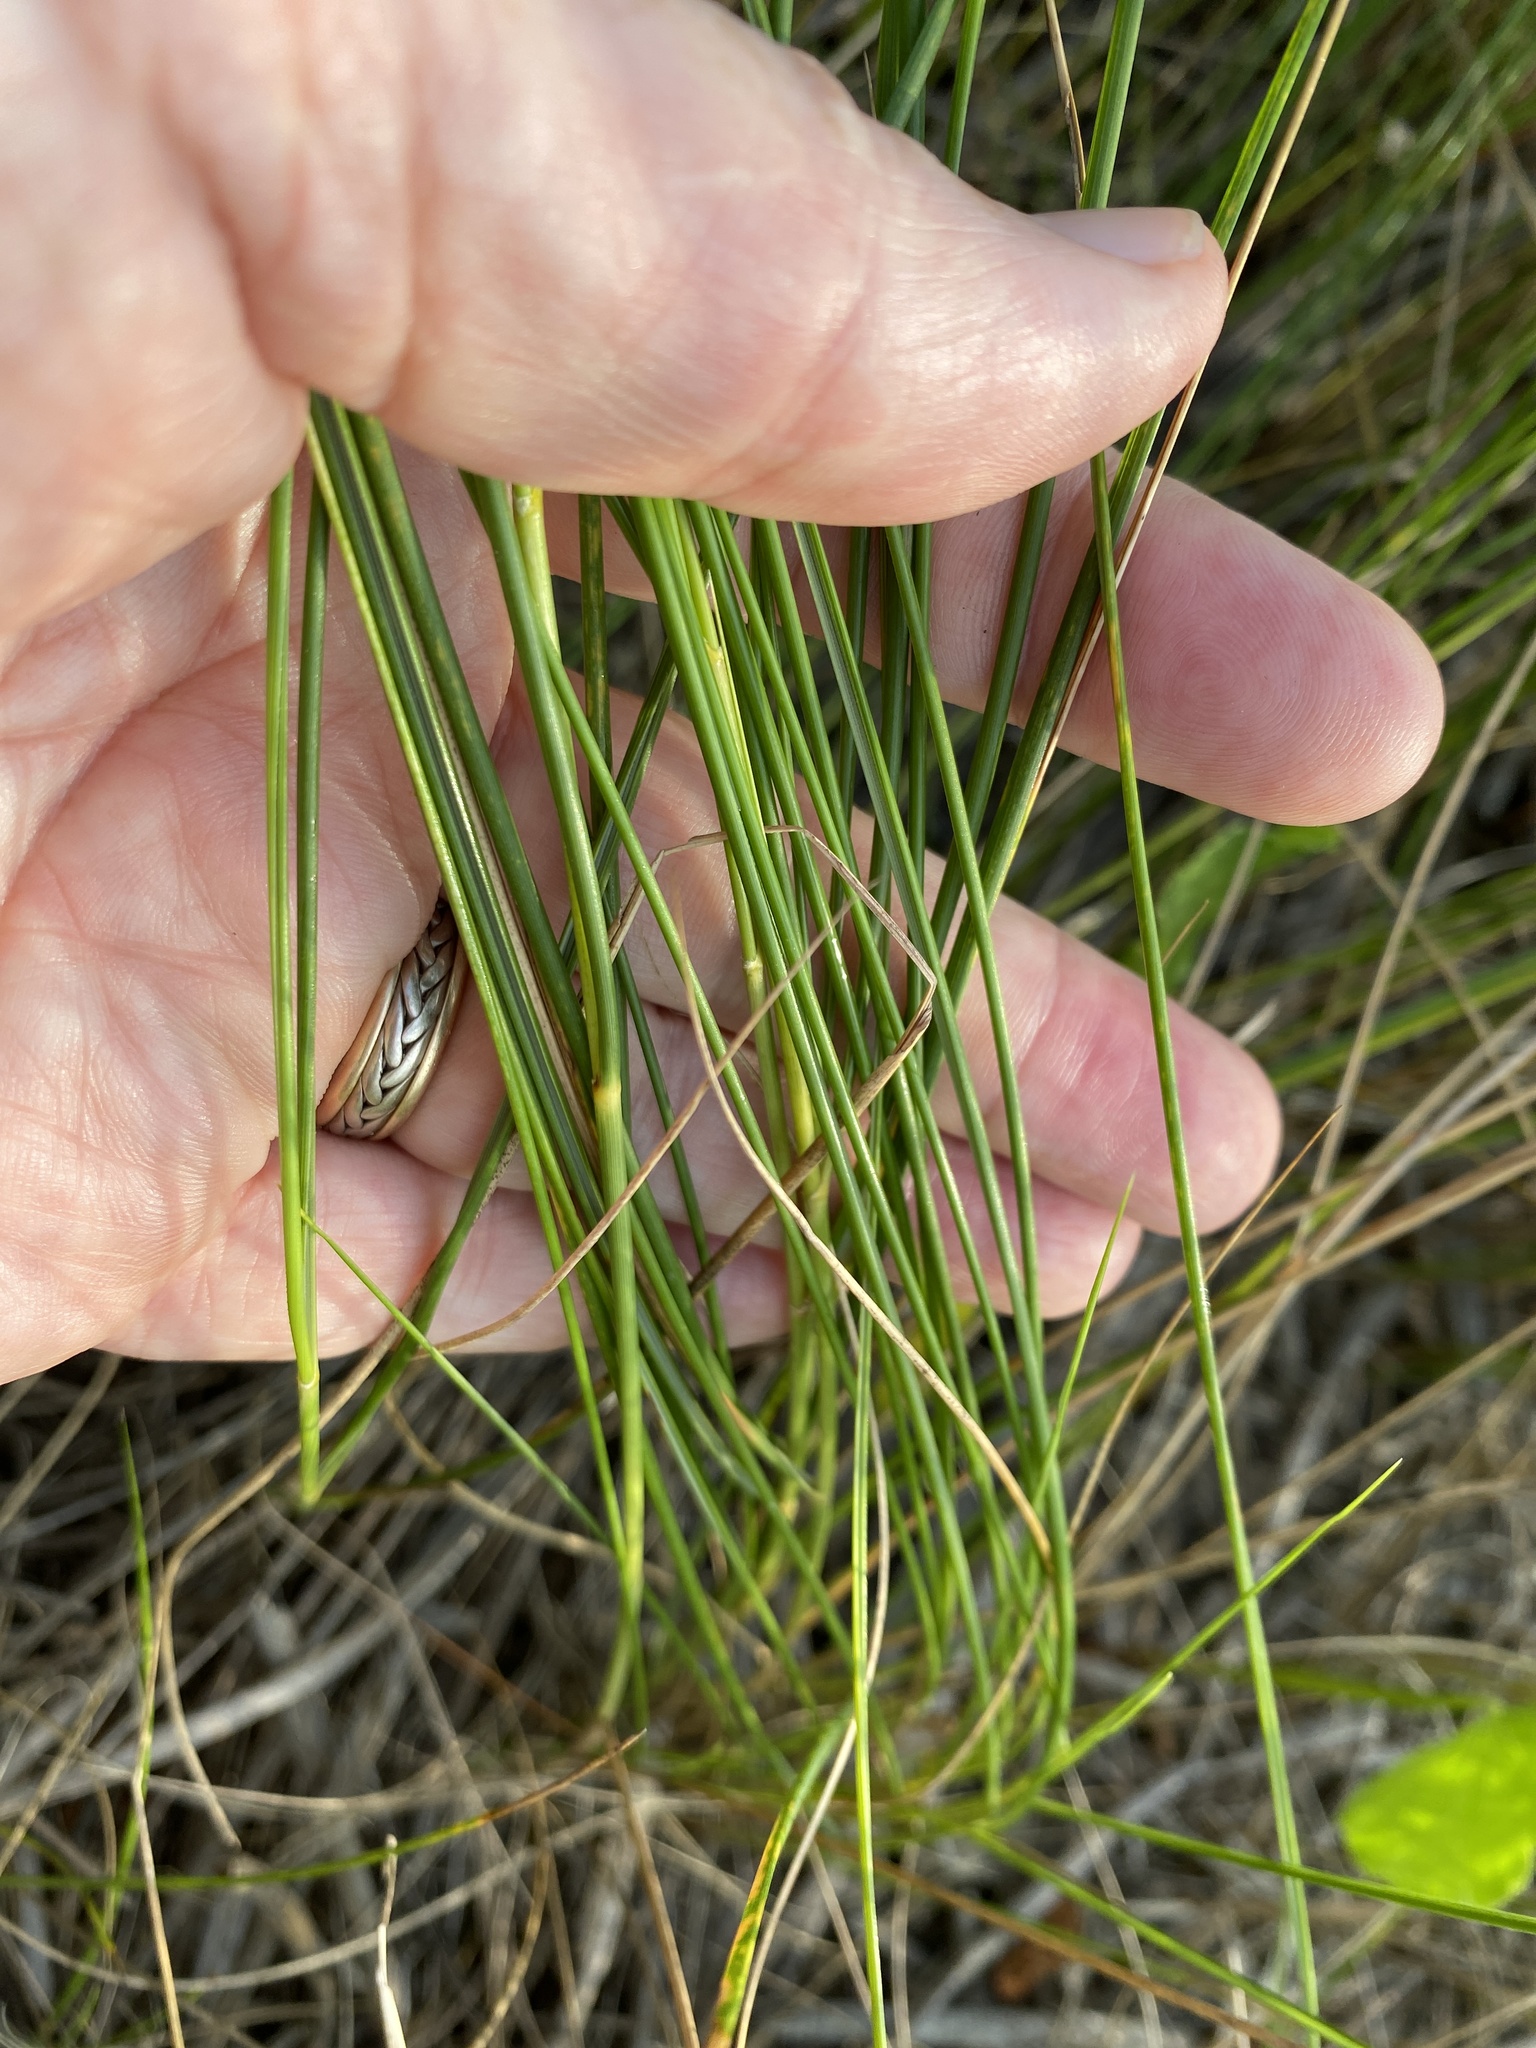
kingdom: Plantae
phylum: Tracheophyta
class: Liliopsida
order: Poales
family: Poaceae
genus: Sporobolus
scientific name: Sporobolus pumilus
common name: Highwater grass
